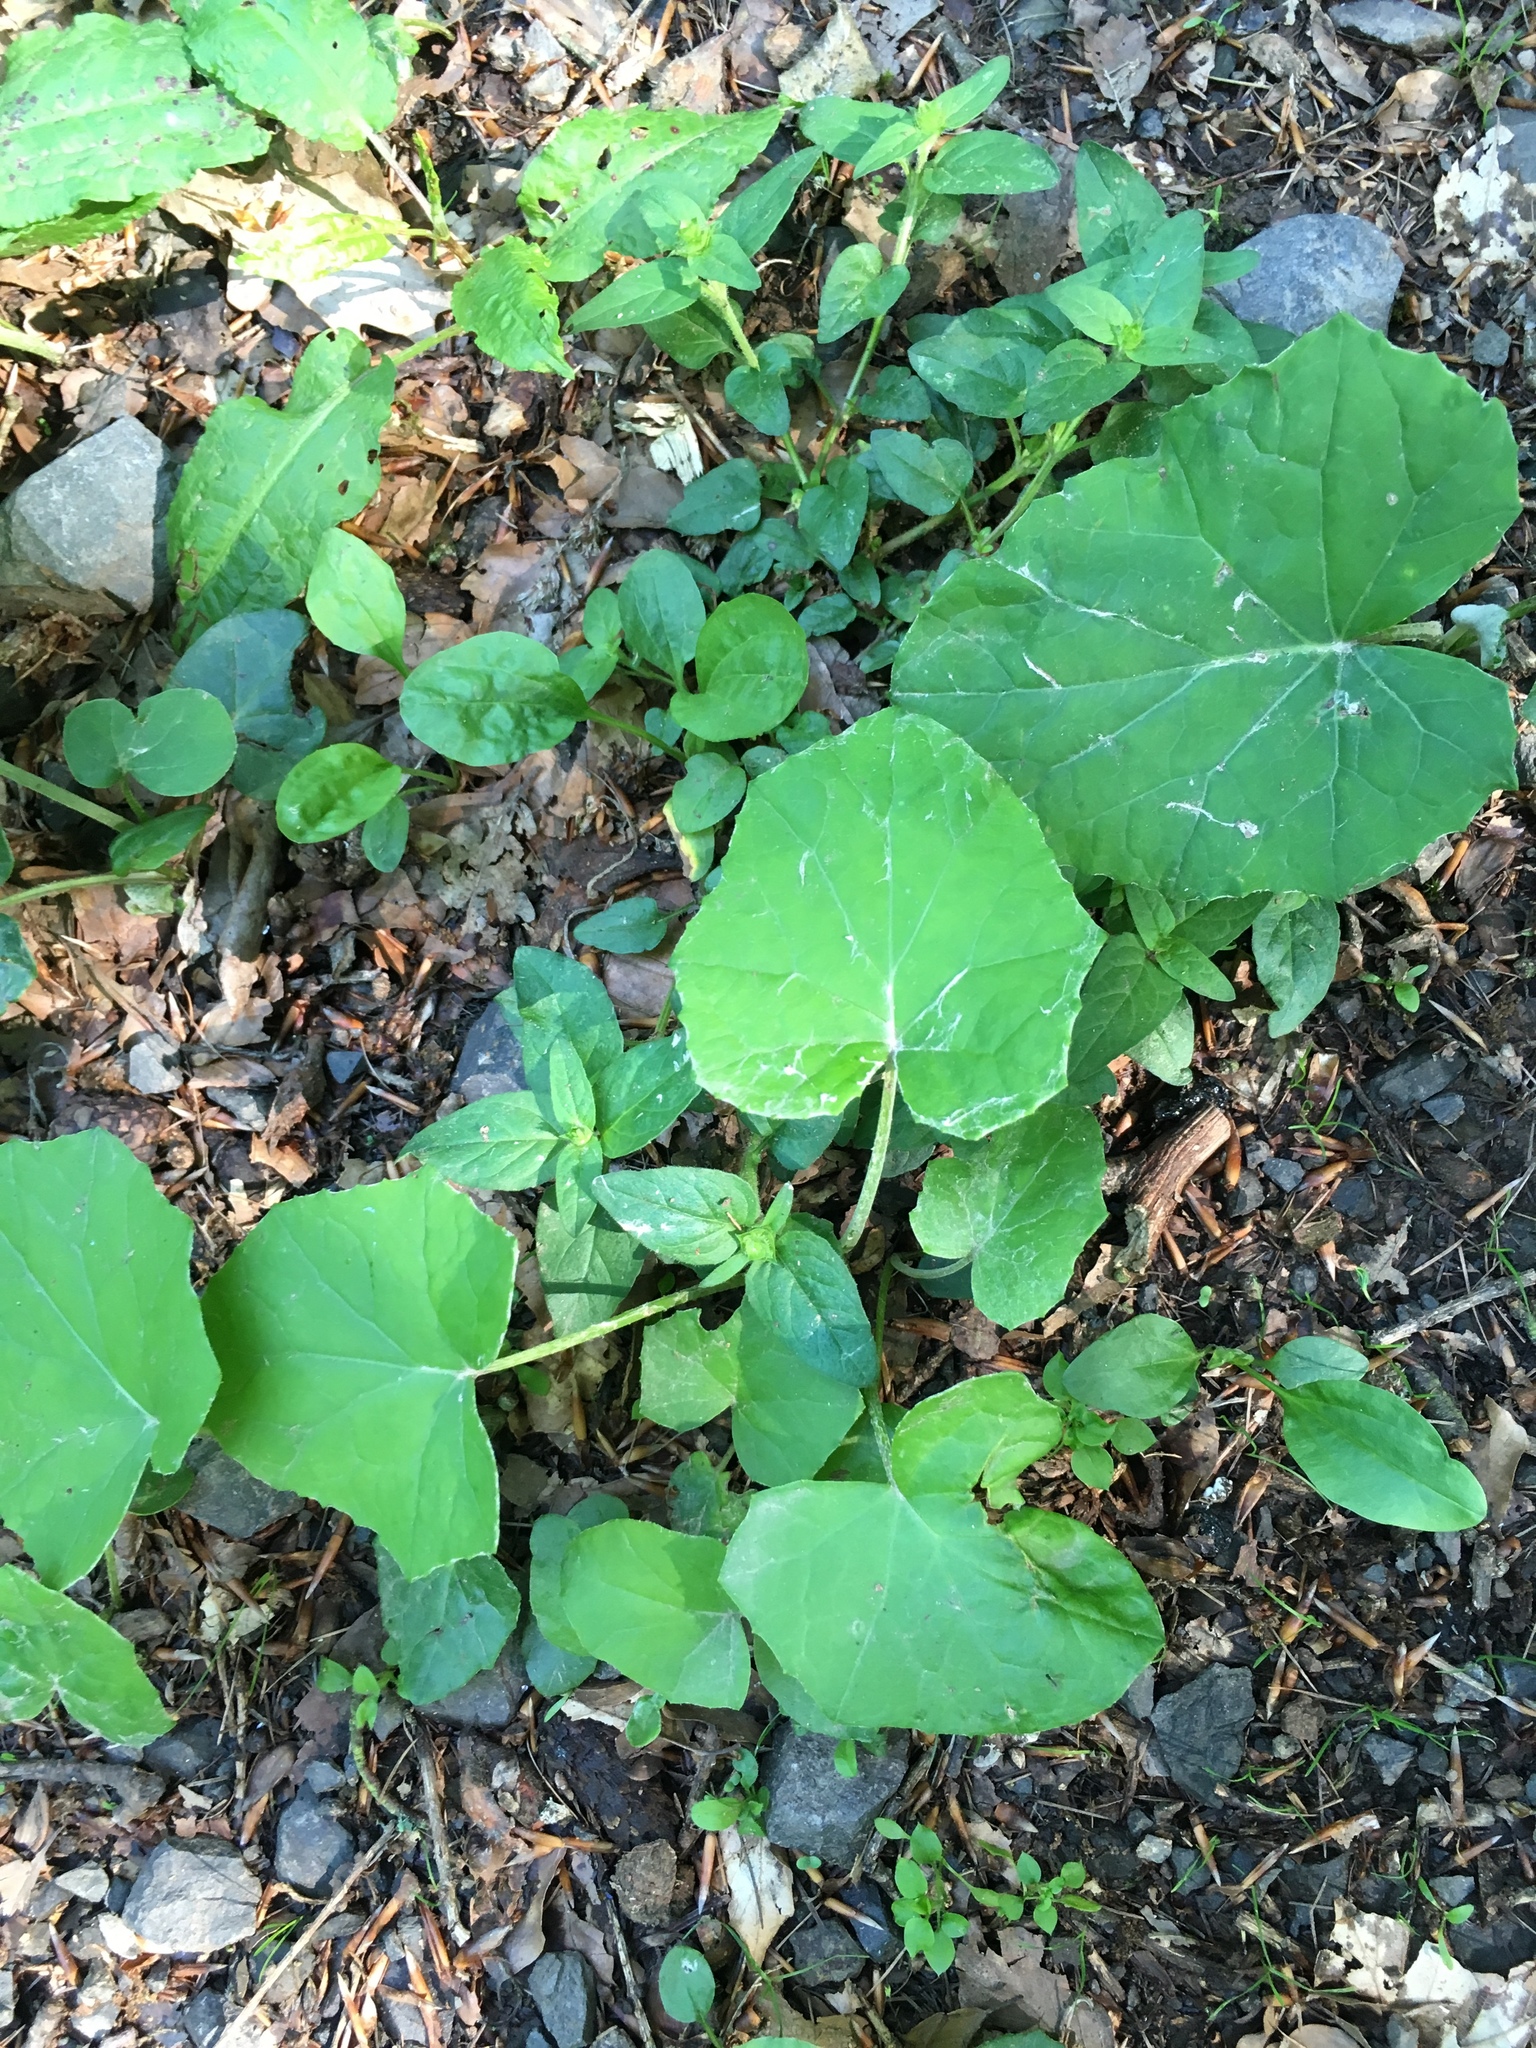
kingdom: Plantae
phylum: Tracheophyta
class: Magnoliopsida
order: Asterales
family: Asteraceae
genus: Tussilago
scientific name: Tussilago farfara
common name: Coltsfoot
